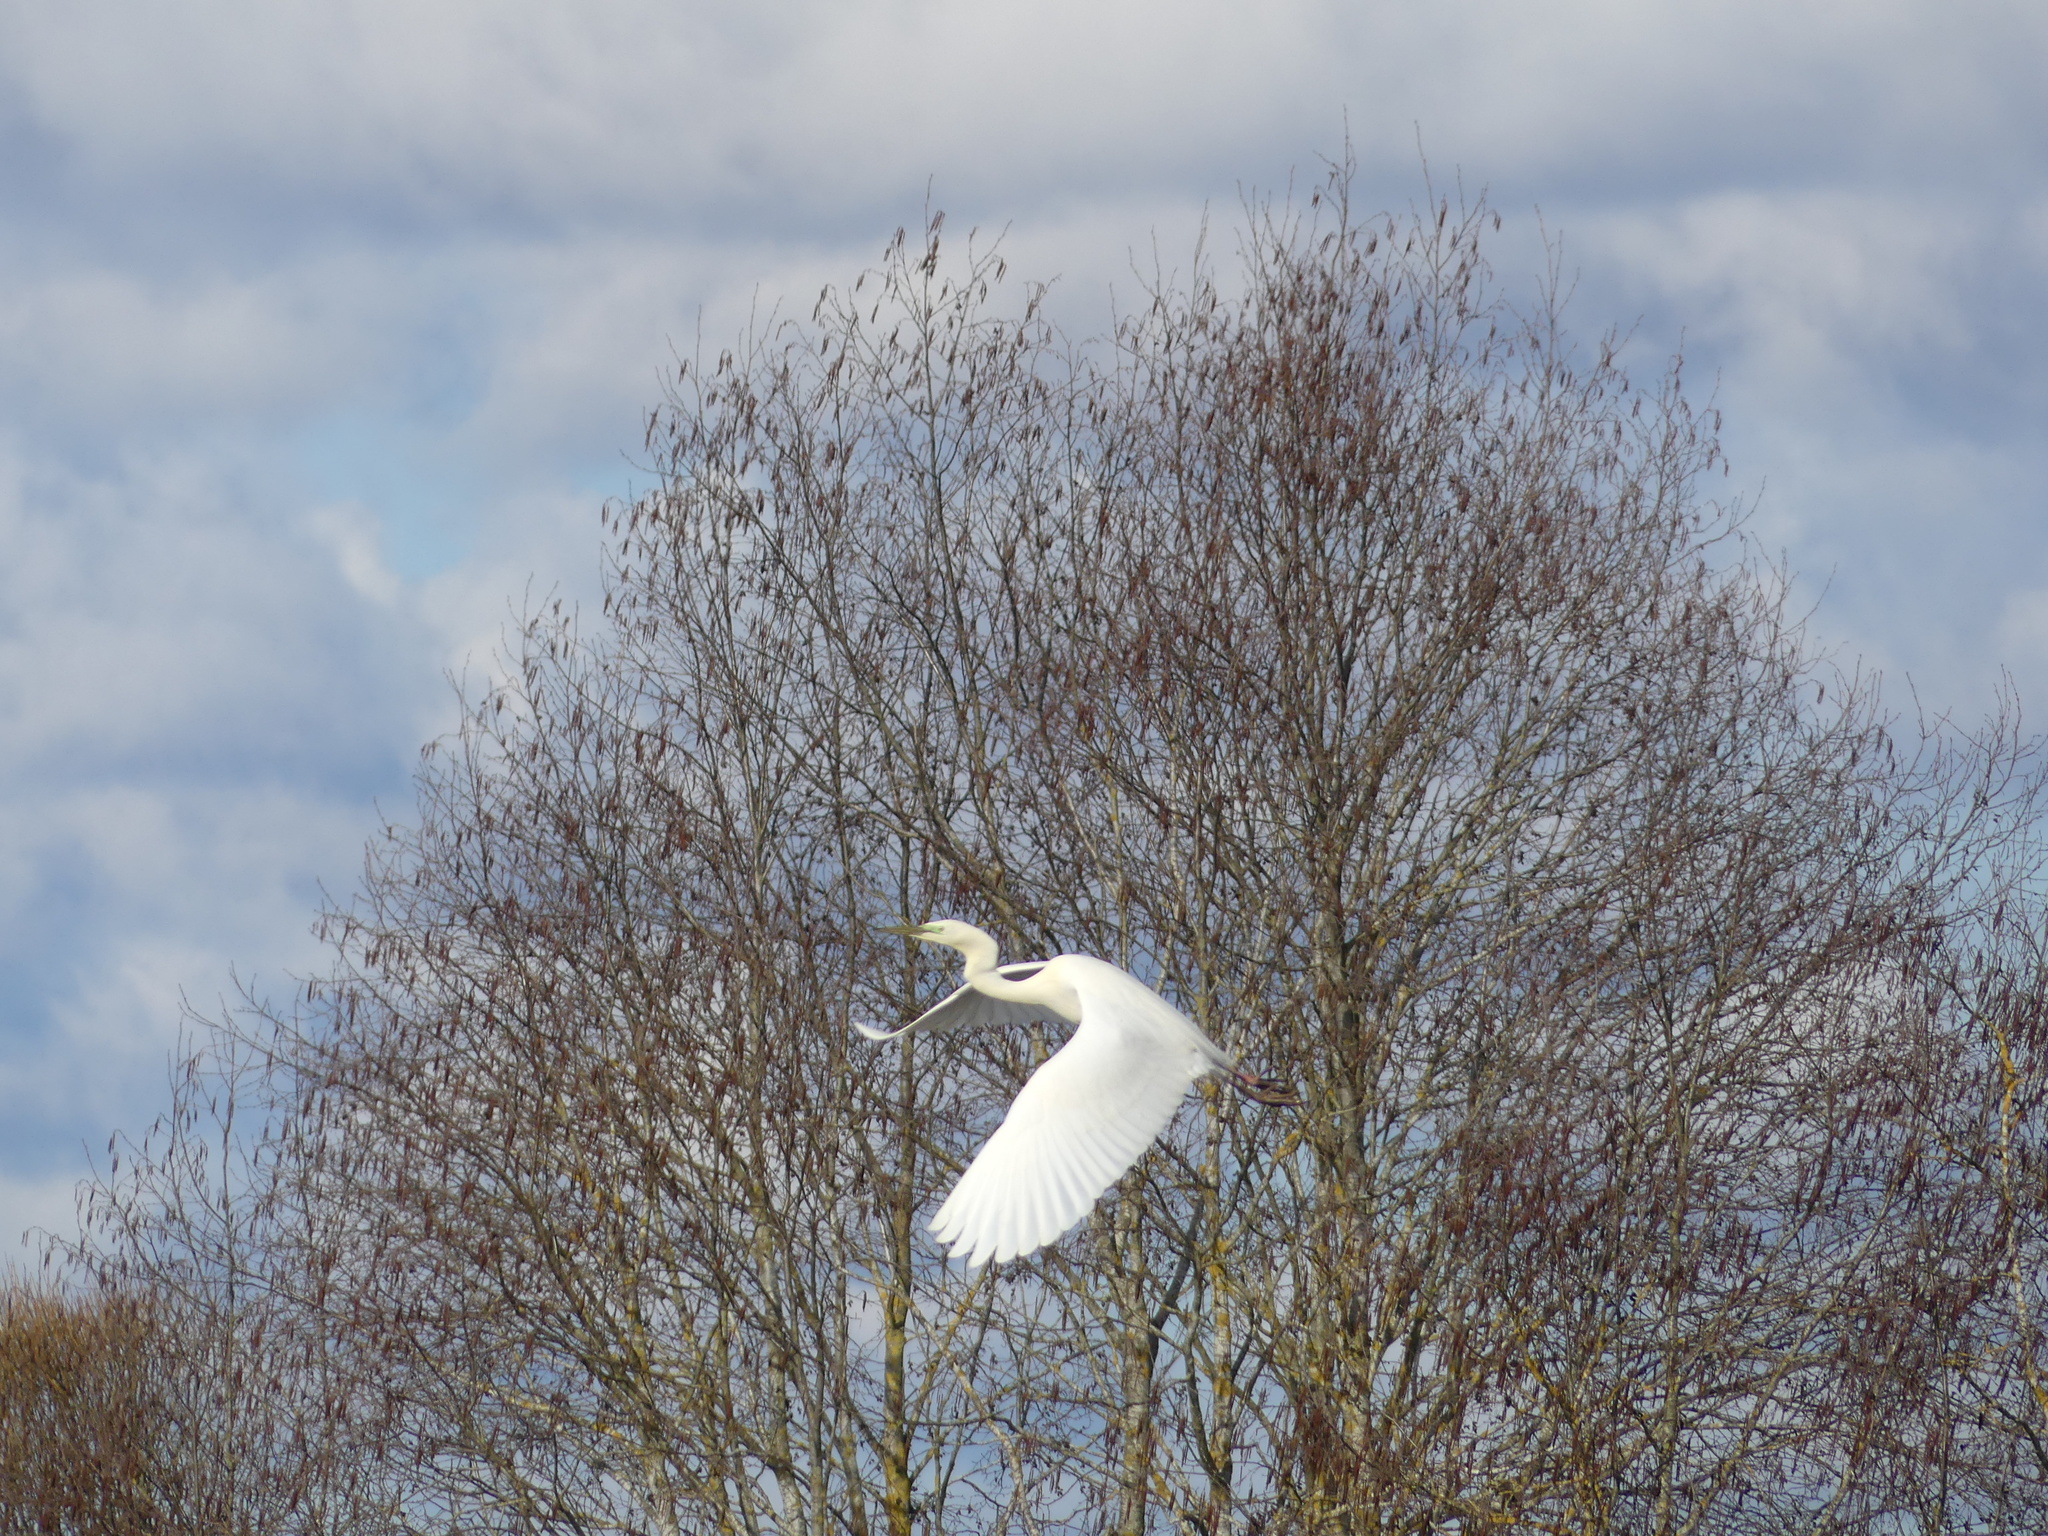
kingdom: Animalia
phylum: Chordata
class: Aves
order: Pelecaniformes
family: Ardeidae
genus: Ardea
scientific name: Ardea alba
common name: Great egret
